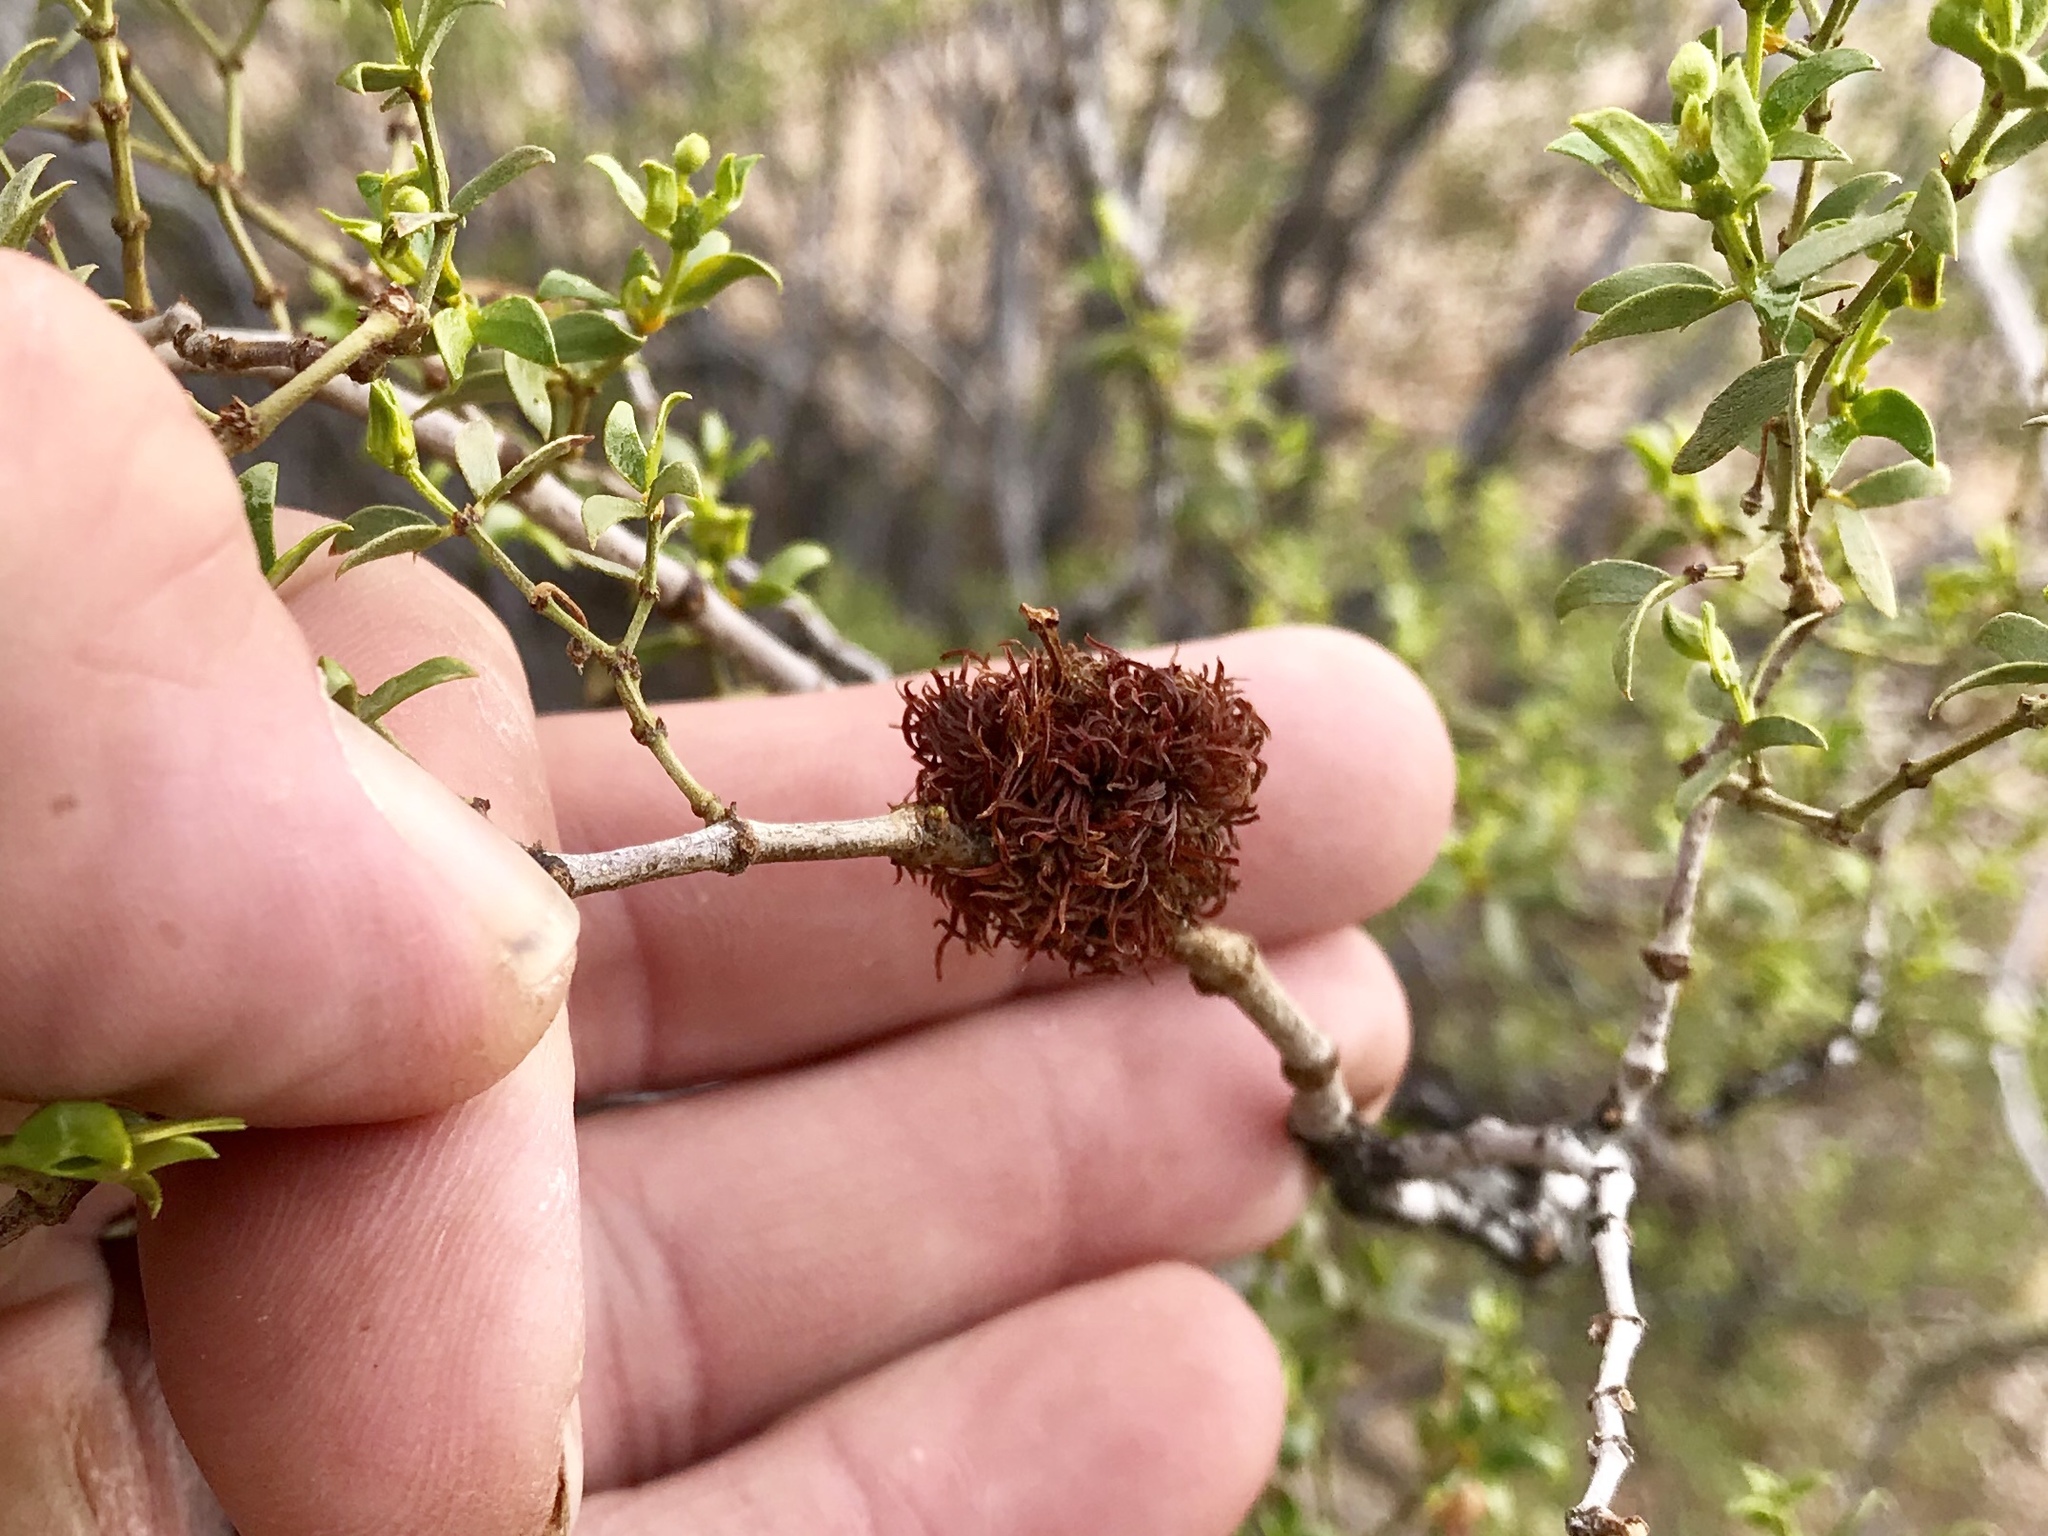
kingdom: Animalia
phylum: Arthropoda
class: Insecta
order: Diptera
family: Cecidomyiidae
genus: Asphondylia
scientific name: Asphondylia auripila
